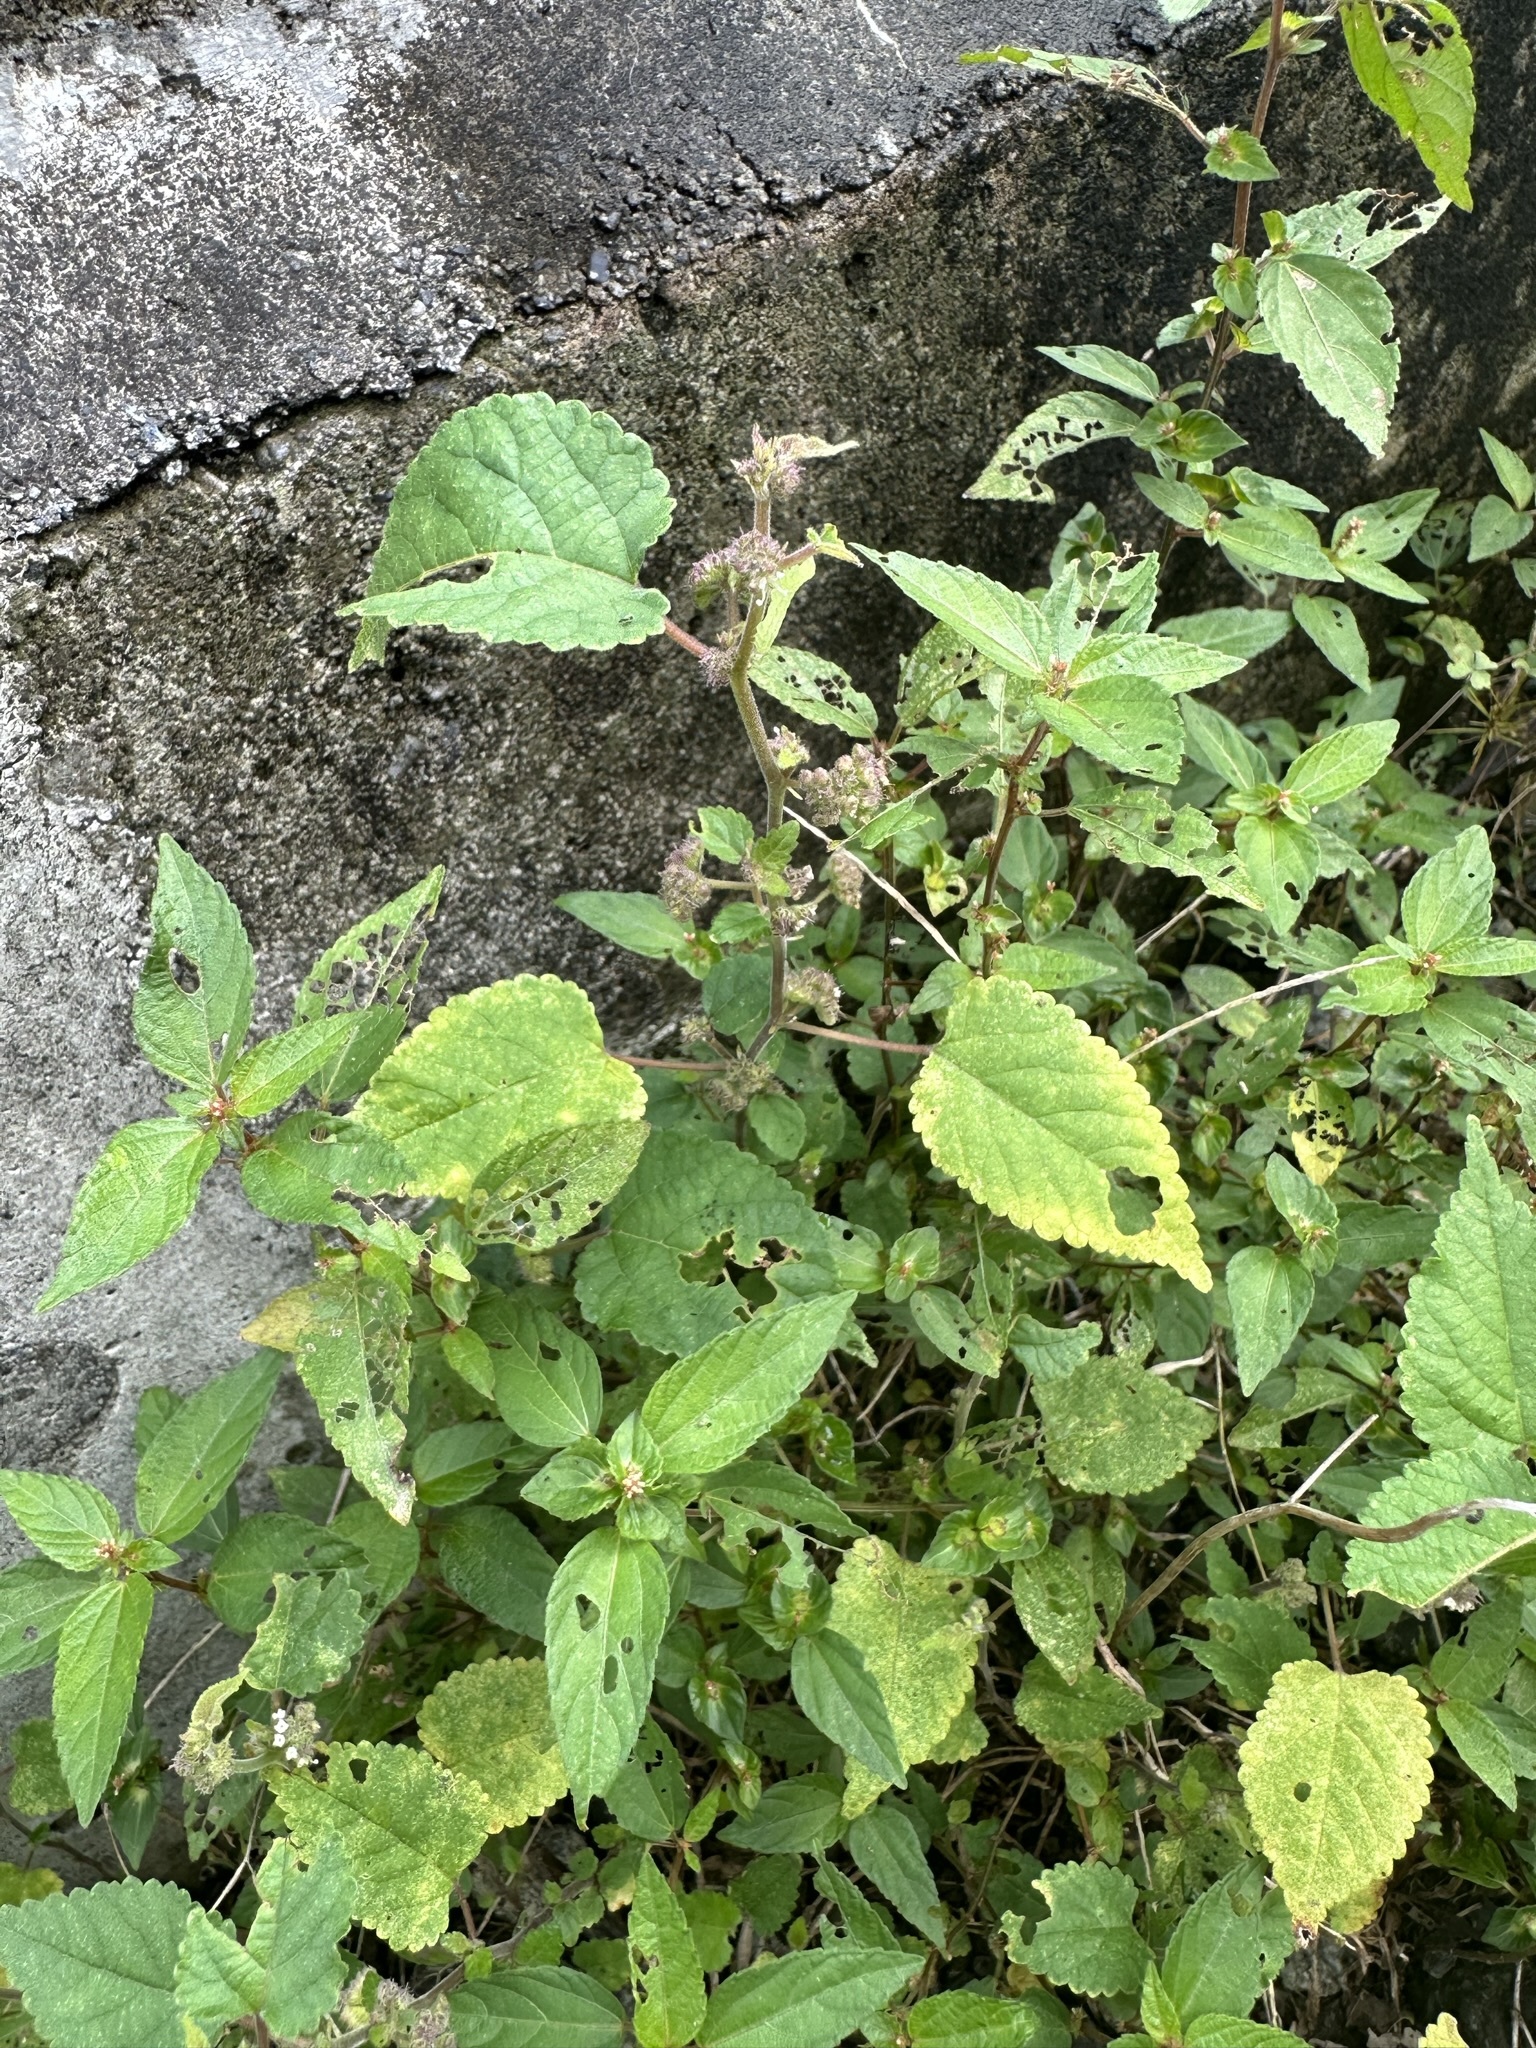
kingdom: Plantae
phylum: Tracheophyta
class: Magnoliopsida
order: Rosales
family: Moraceae
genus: Fatoua
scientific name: Fatoua villosa
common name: Hairy crabweed
